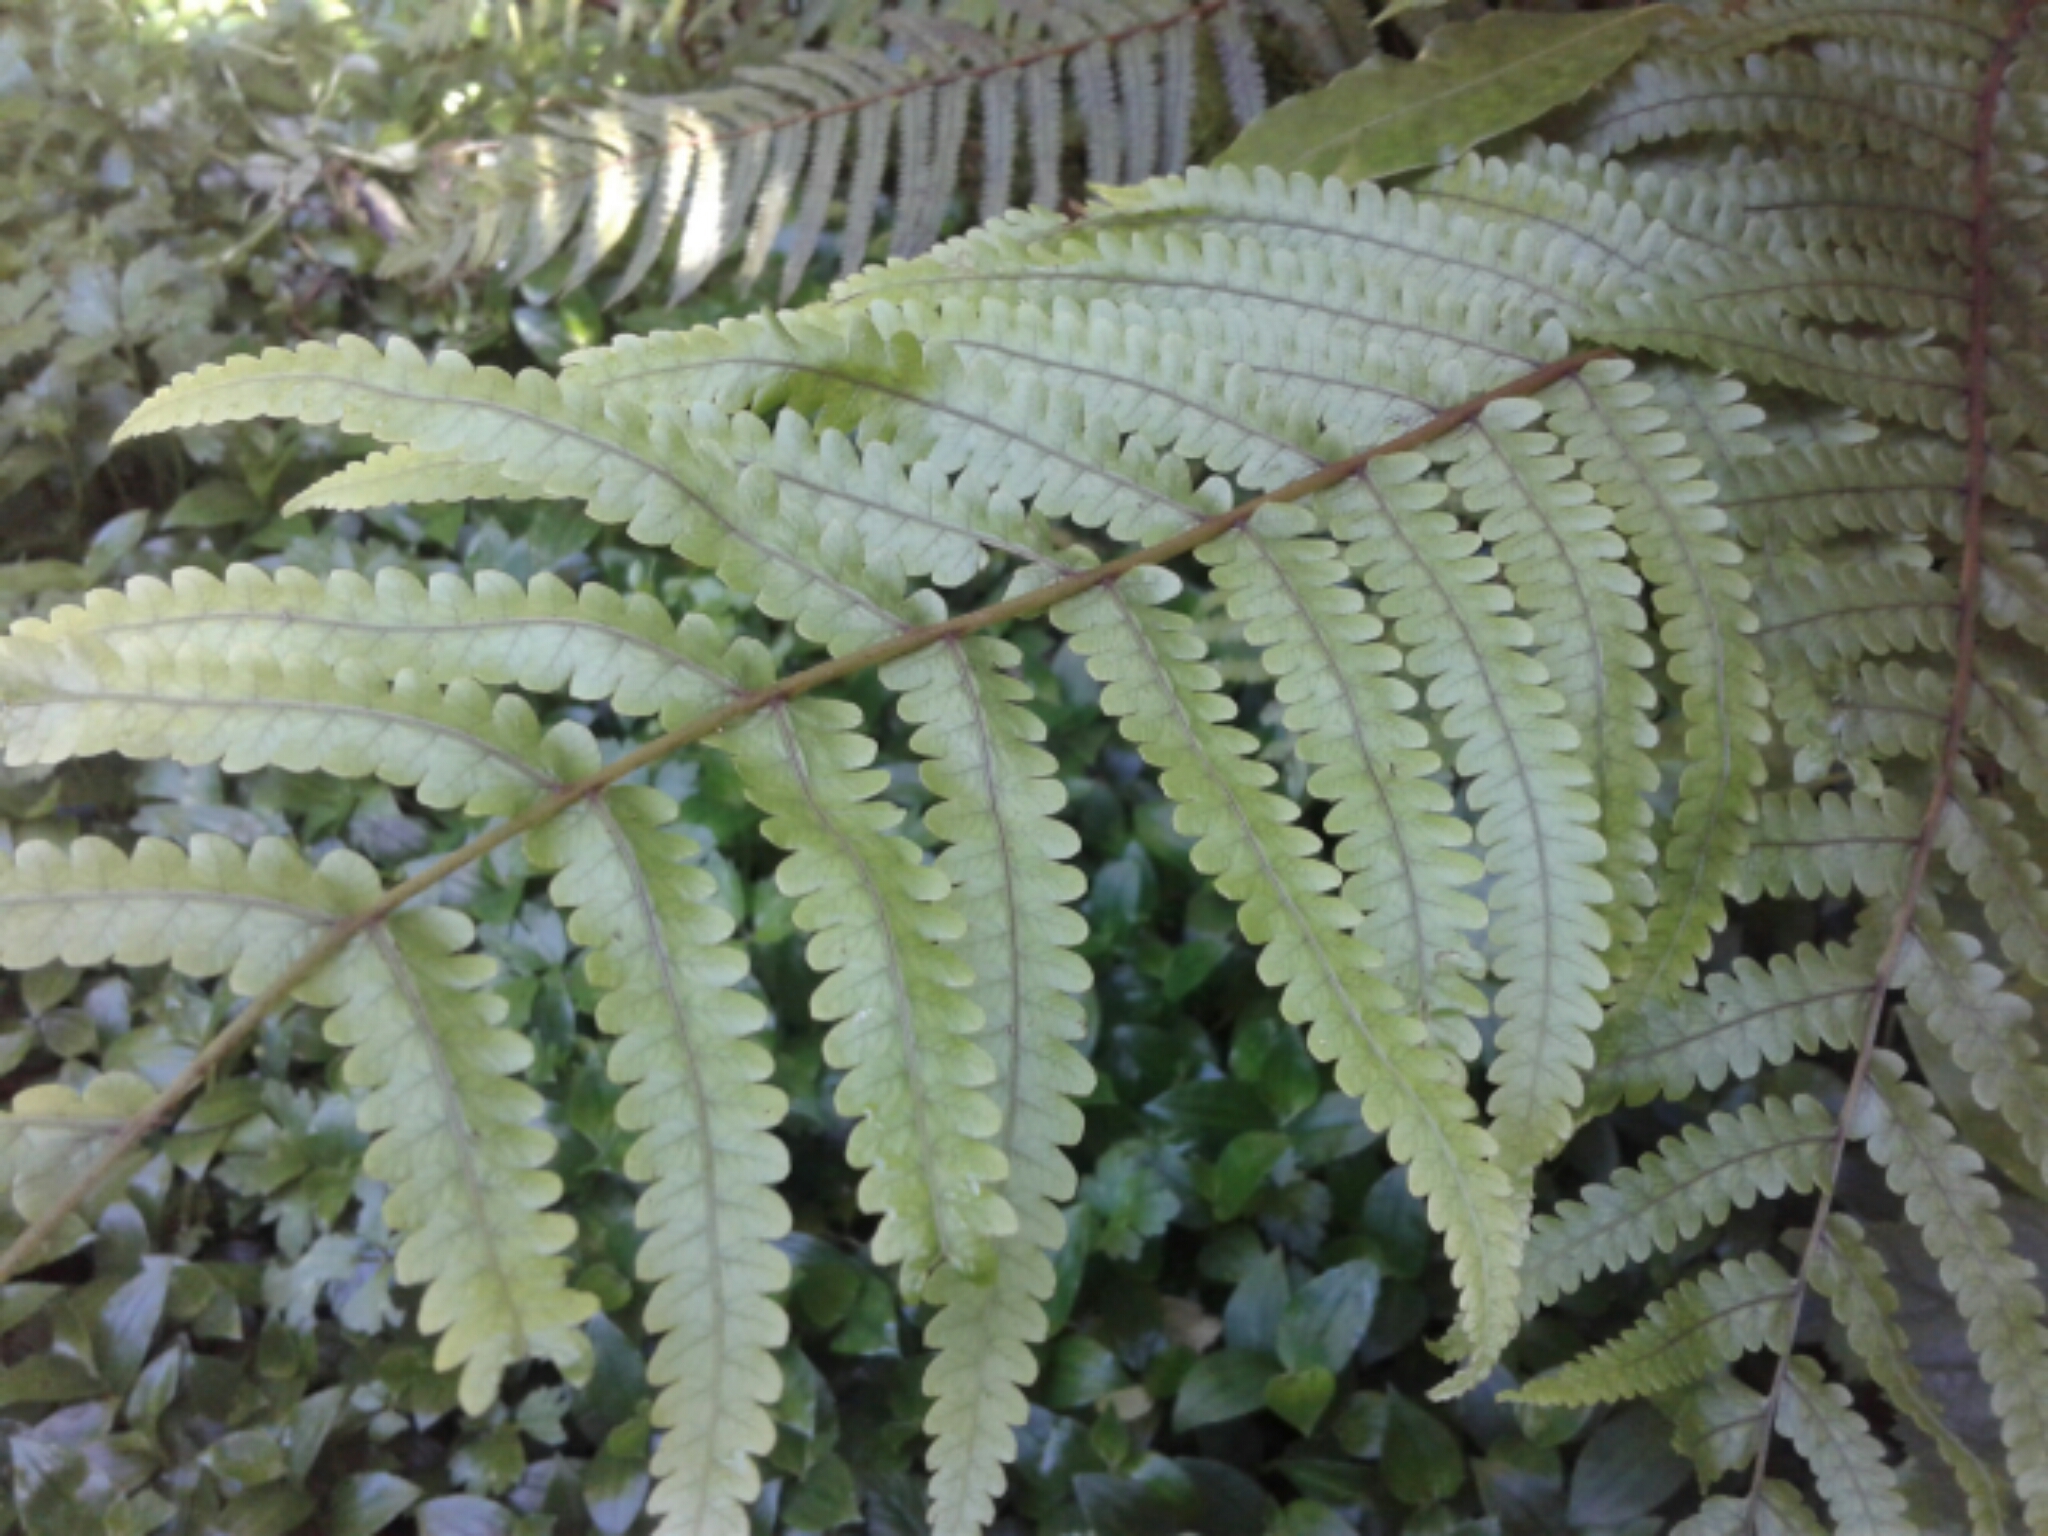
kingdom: Plantae
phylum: Tracheophyta
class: Polypodiopsida
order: Polypodiales
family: Thelypteridaceae
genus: Pakau
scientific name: Pakau pennigera
